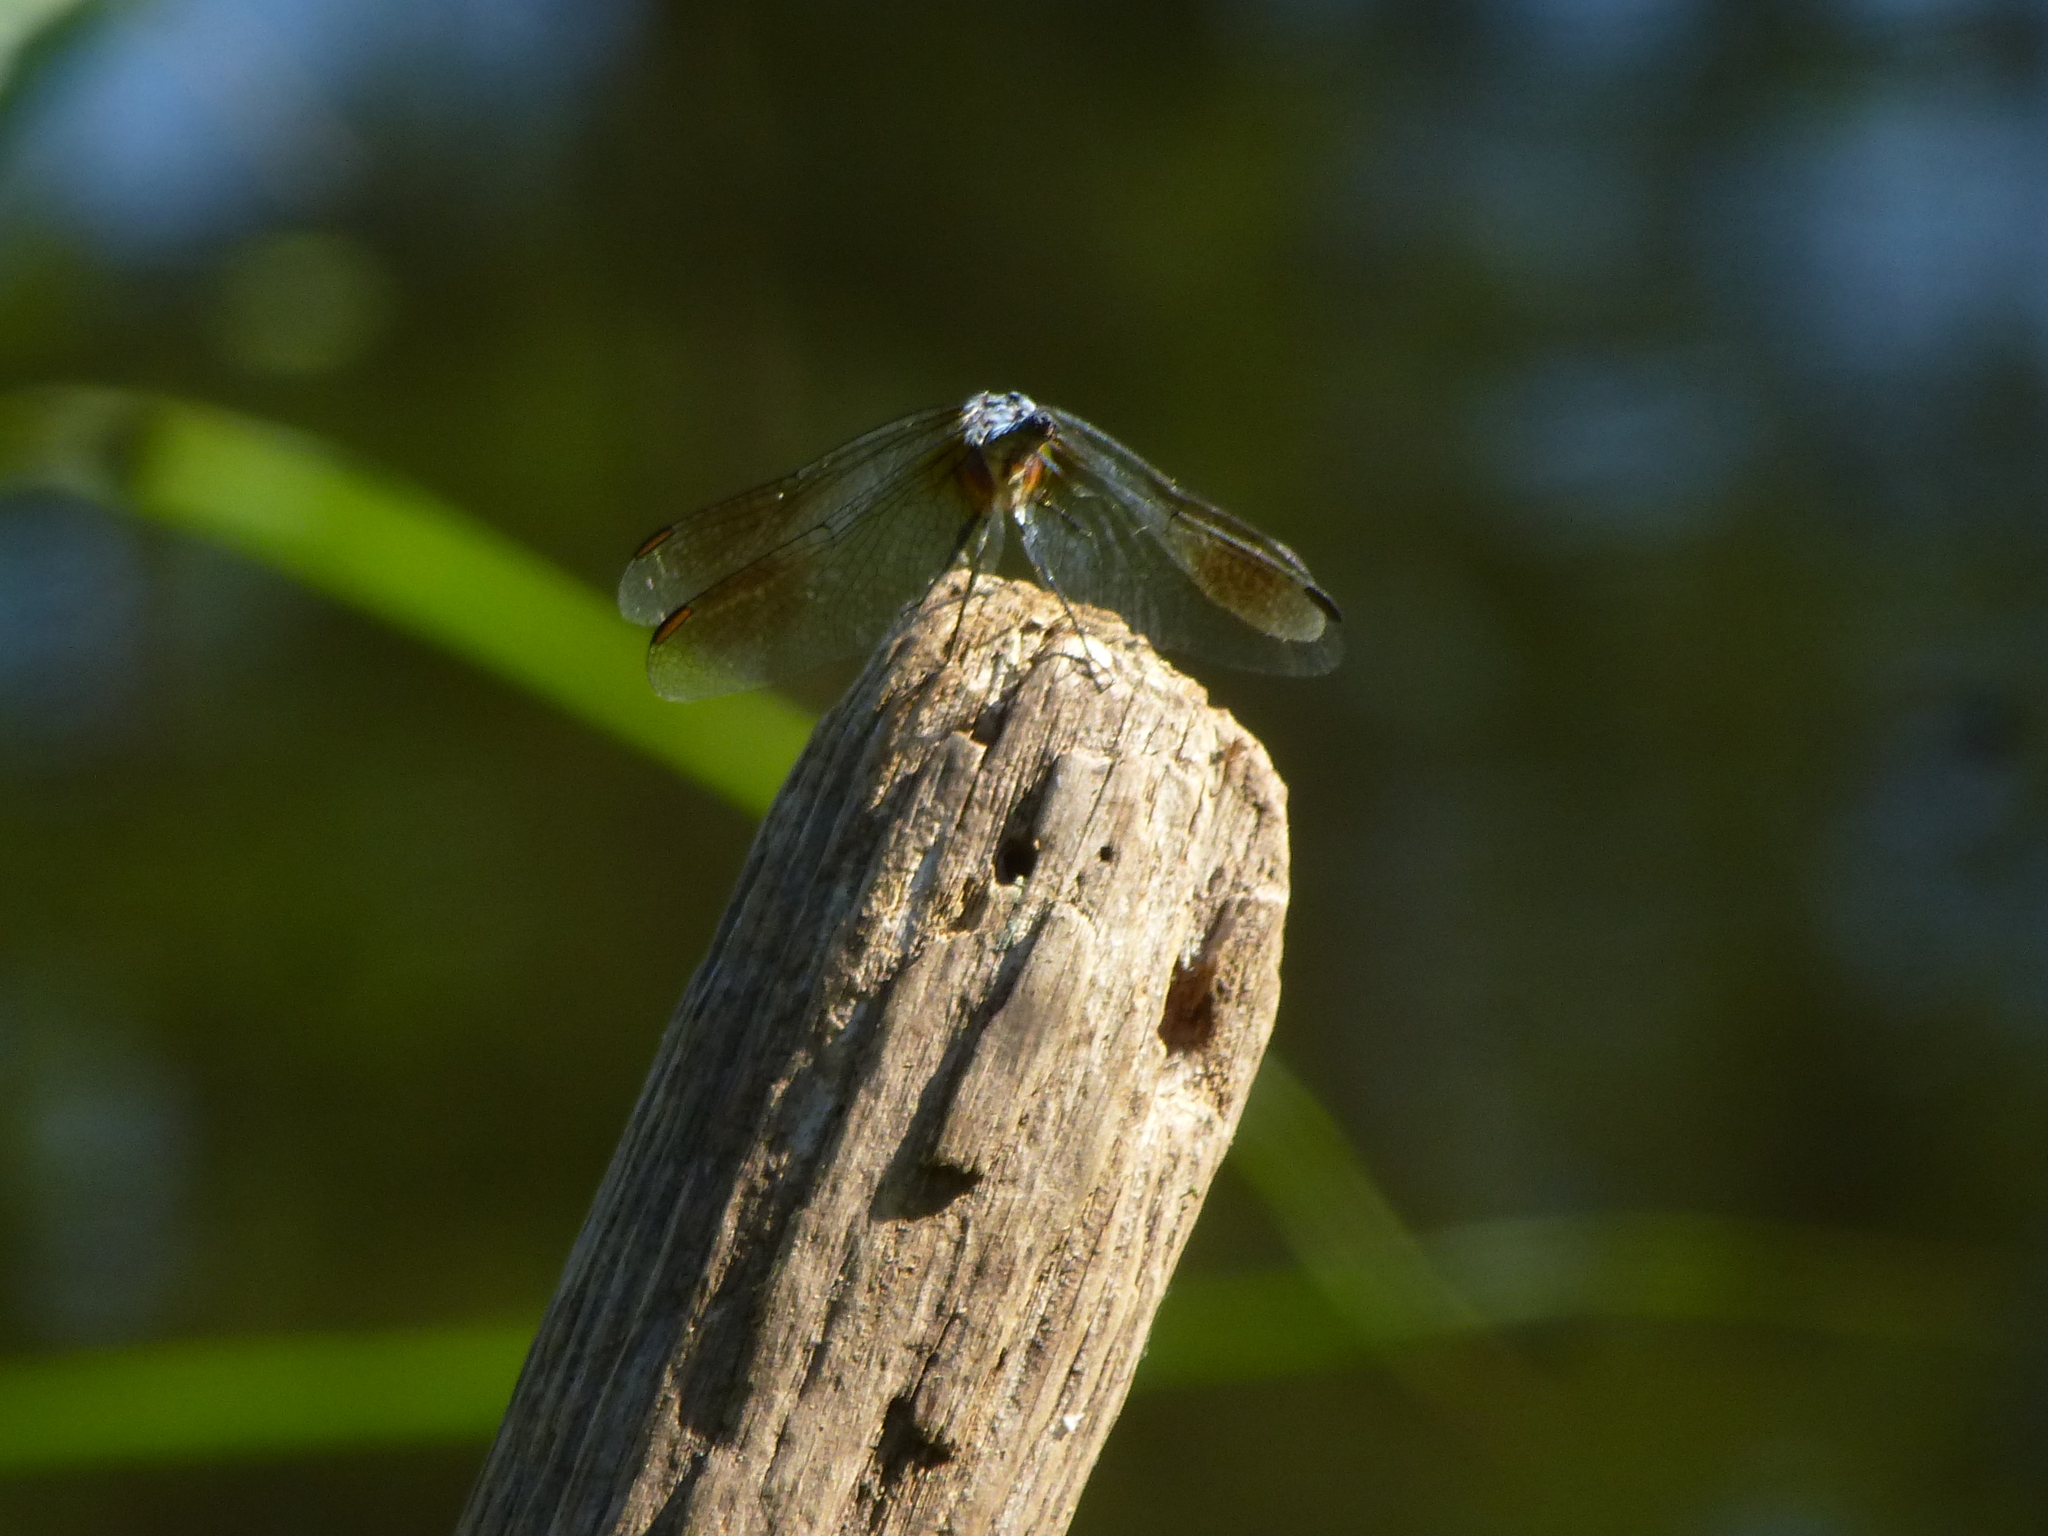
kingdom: Animalia
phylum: Arthropoda
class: Insecta
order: Odonata
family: Libellulidae
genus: Pachydiplax
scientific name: Pachydiplax longipennis
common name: Blue dasher
